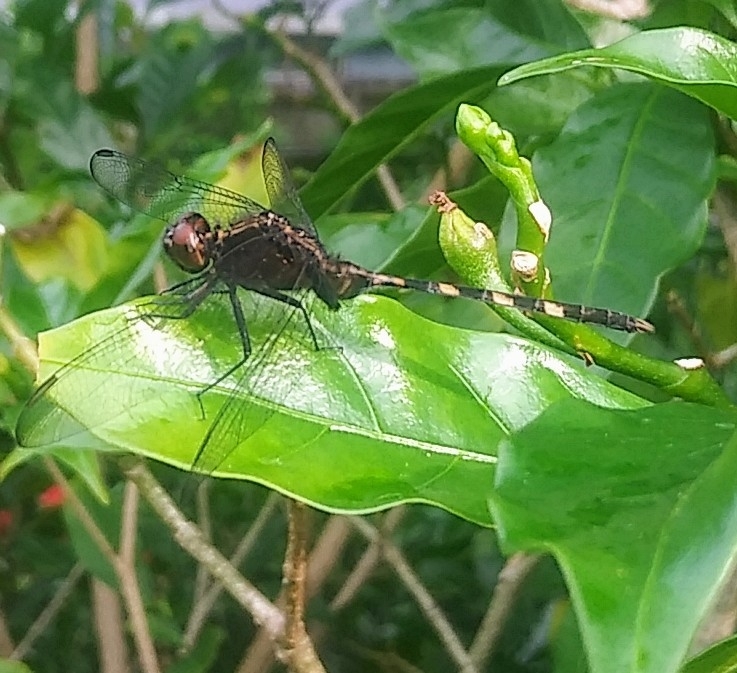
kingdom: Animalia
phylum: Arthropoda
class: Insecta
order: Odonata
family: Libellulidae
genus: Erythemis
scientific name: Erythemis plebeja
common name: Pin-tailed pondhawk
